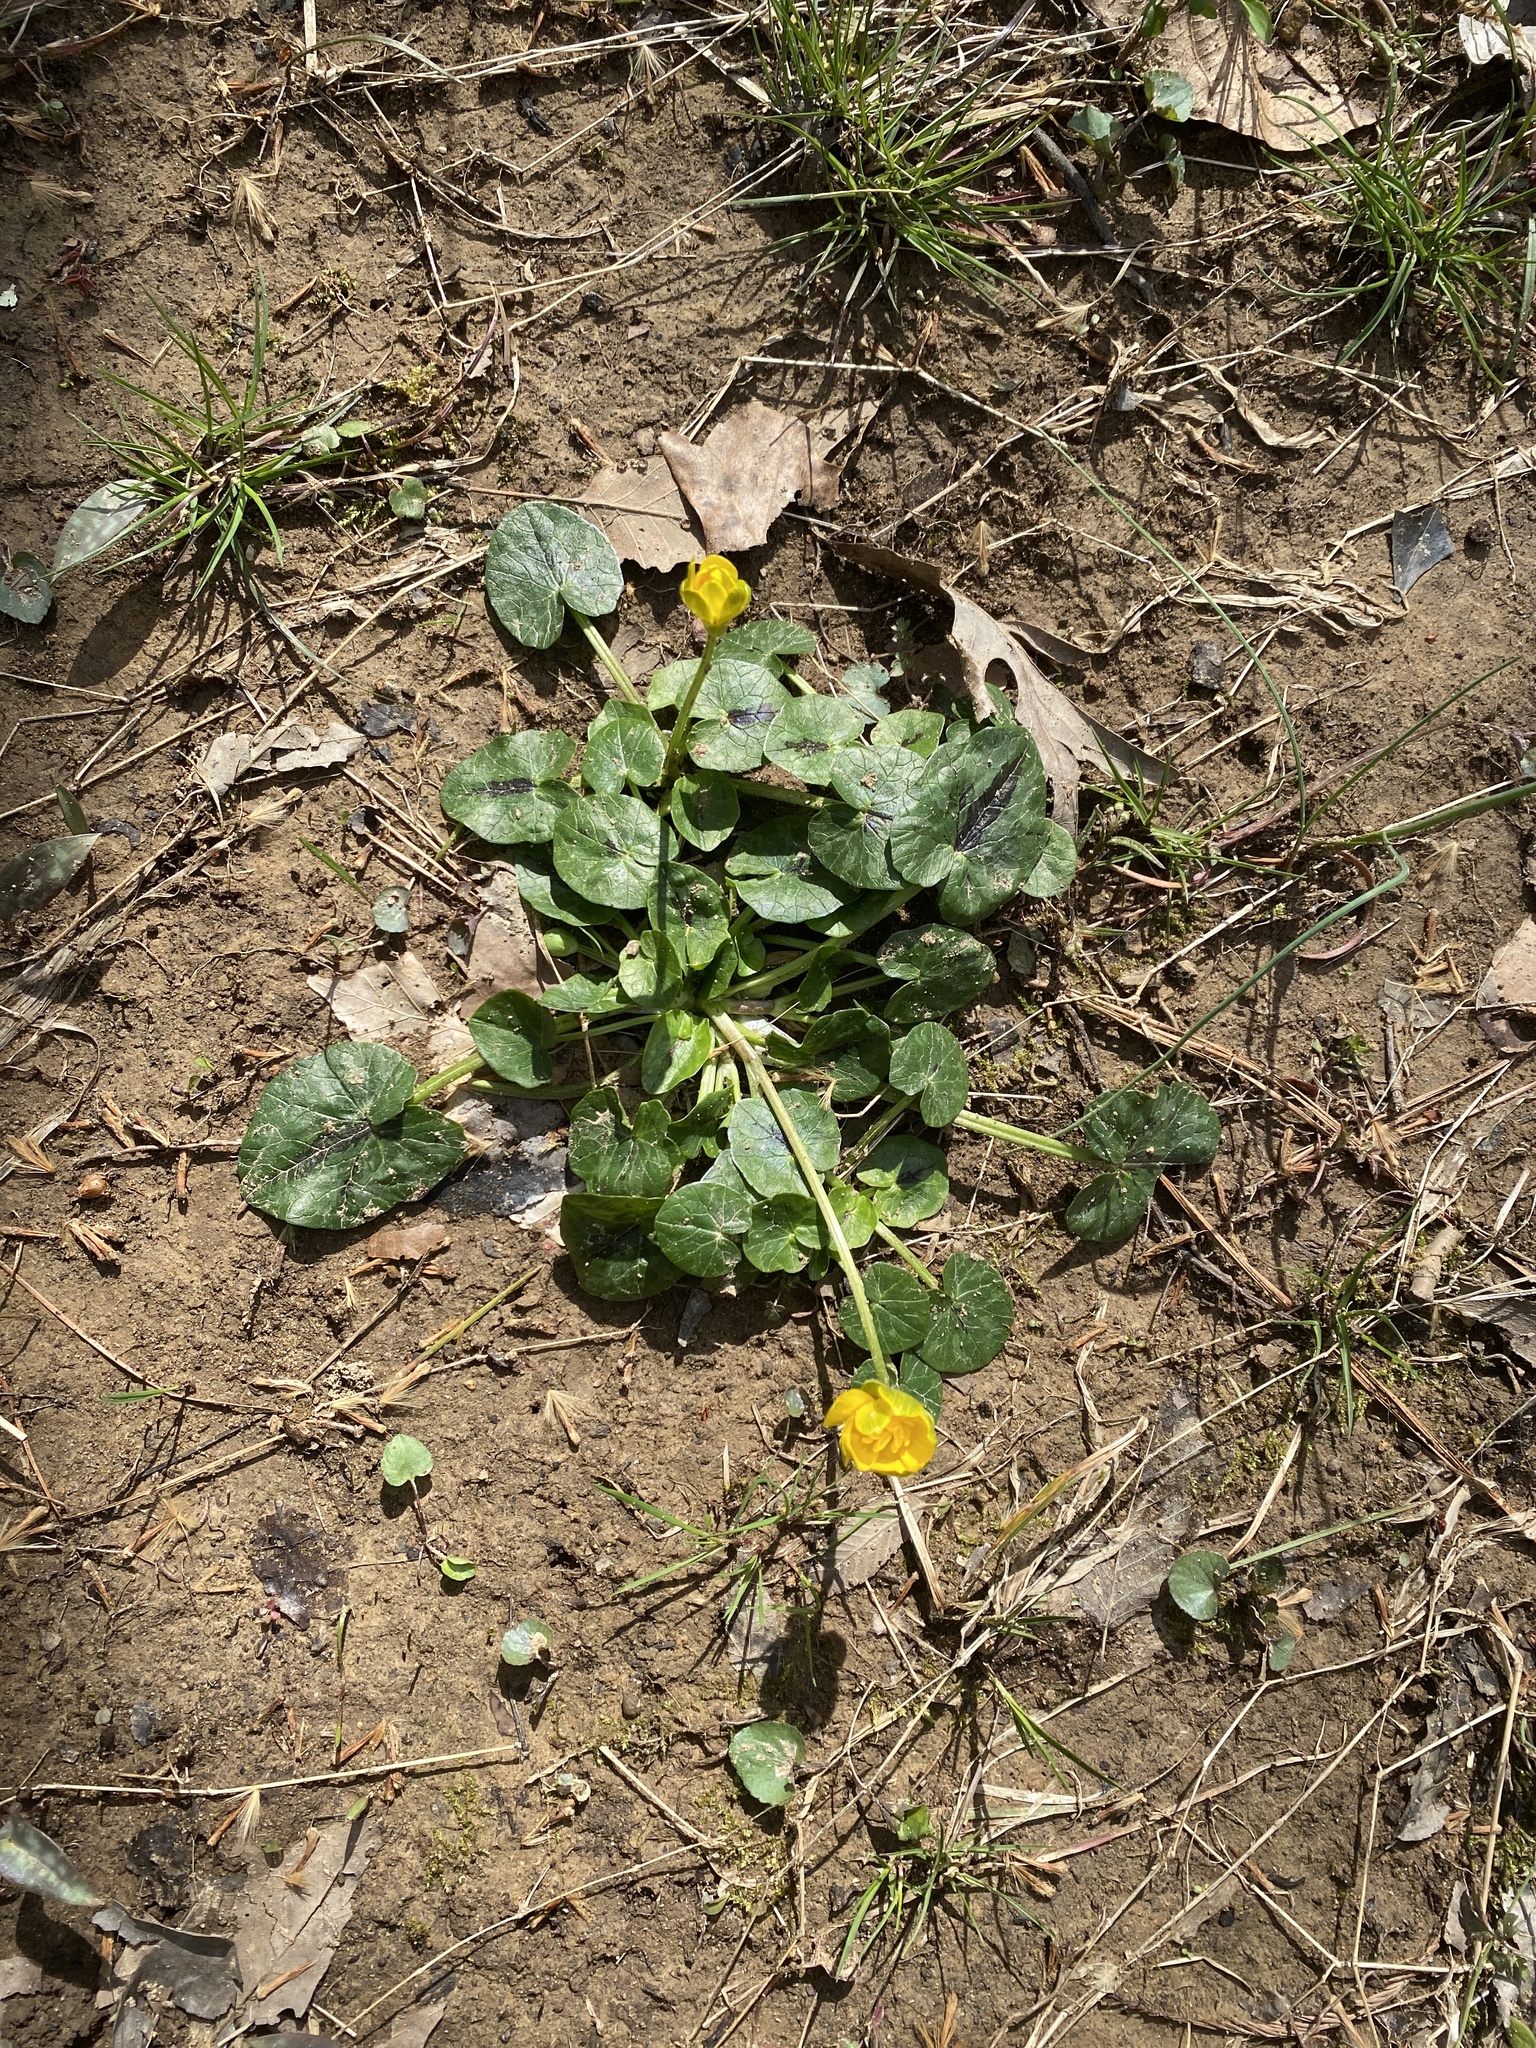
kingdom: Plantae
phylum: Tracheophyta
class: Magnoliopsida
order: Ranunculales
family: Ranunculaceae
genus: Ficaria
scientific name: Ficaria verna
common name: Lesser celandine
